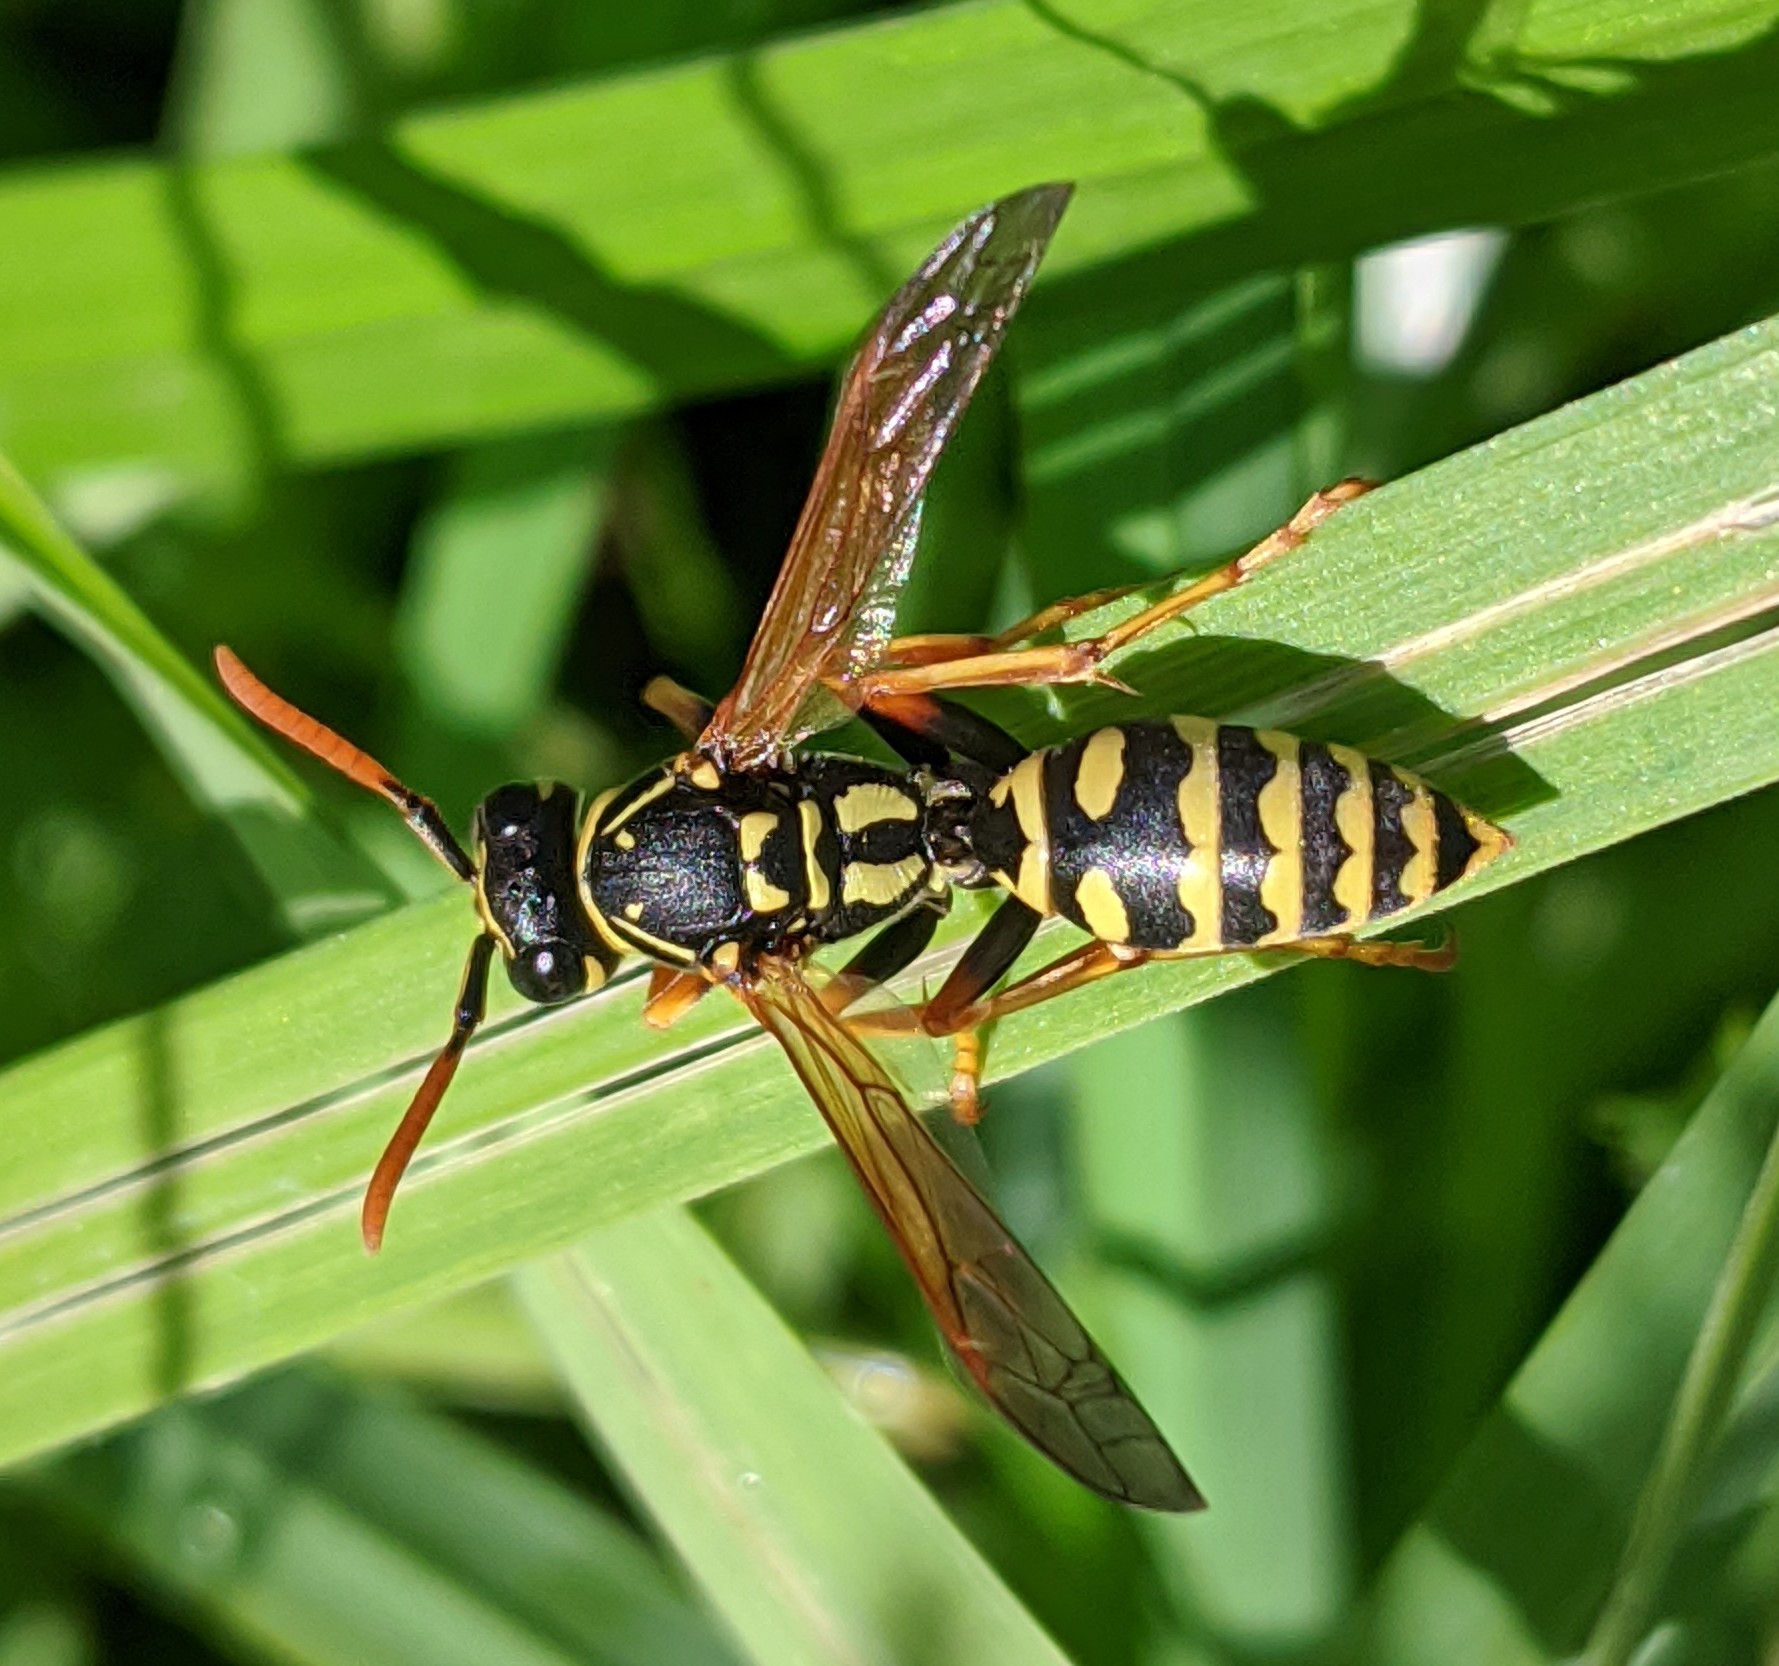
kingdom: Animalia
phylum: Arthropoda
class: Insecta
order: Hymenoptera
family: Eumenidae
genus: Polistes
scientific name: Polistes dominula
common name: Paper wasp
